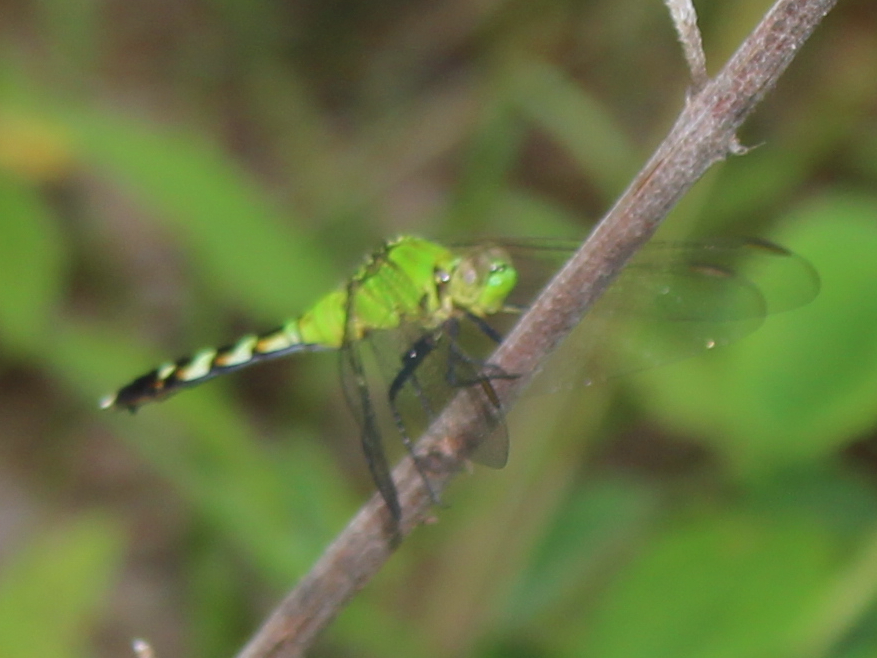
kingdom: Animalia
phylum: Arthropoda
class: Insecta
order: Odonata
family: Libellulidae
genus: Erythemis
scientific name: Erythemis simplicicollis
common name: Eastern pondhawk
